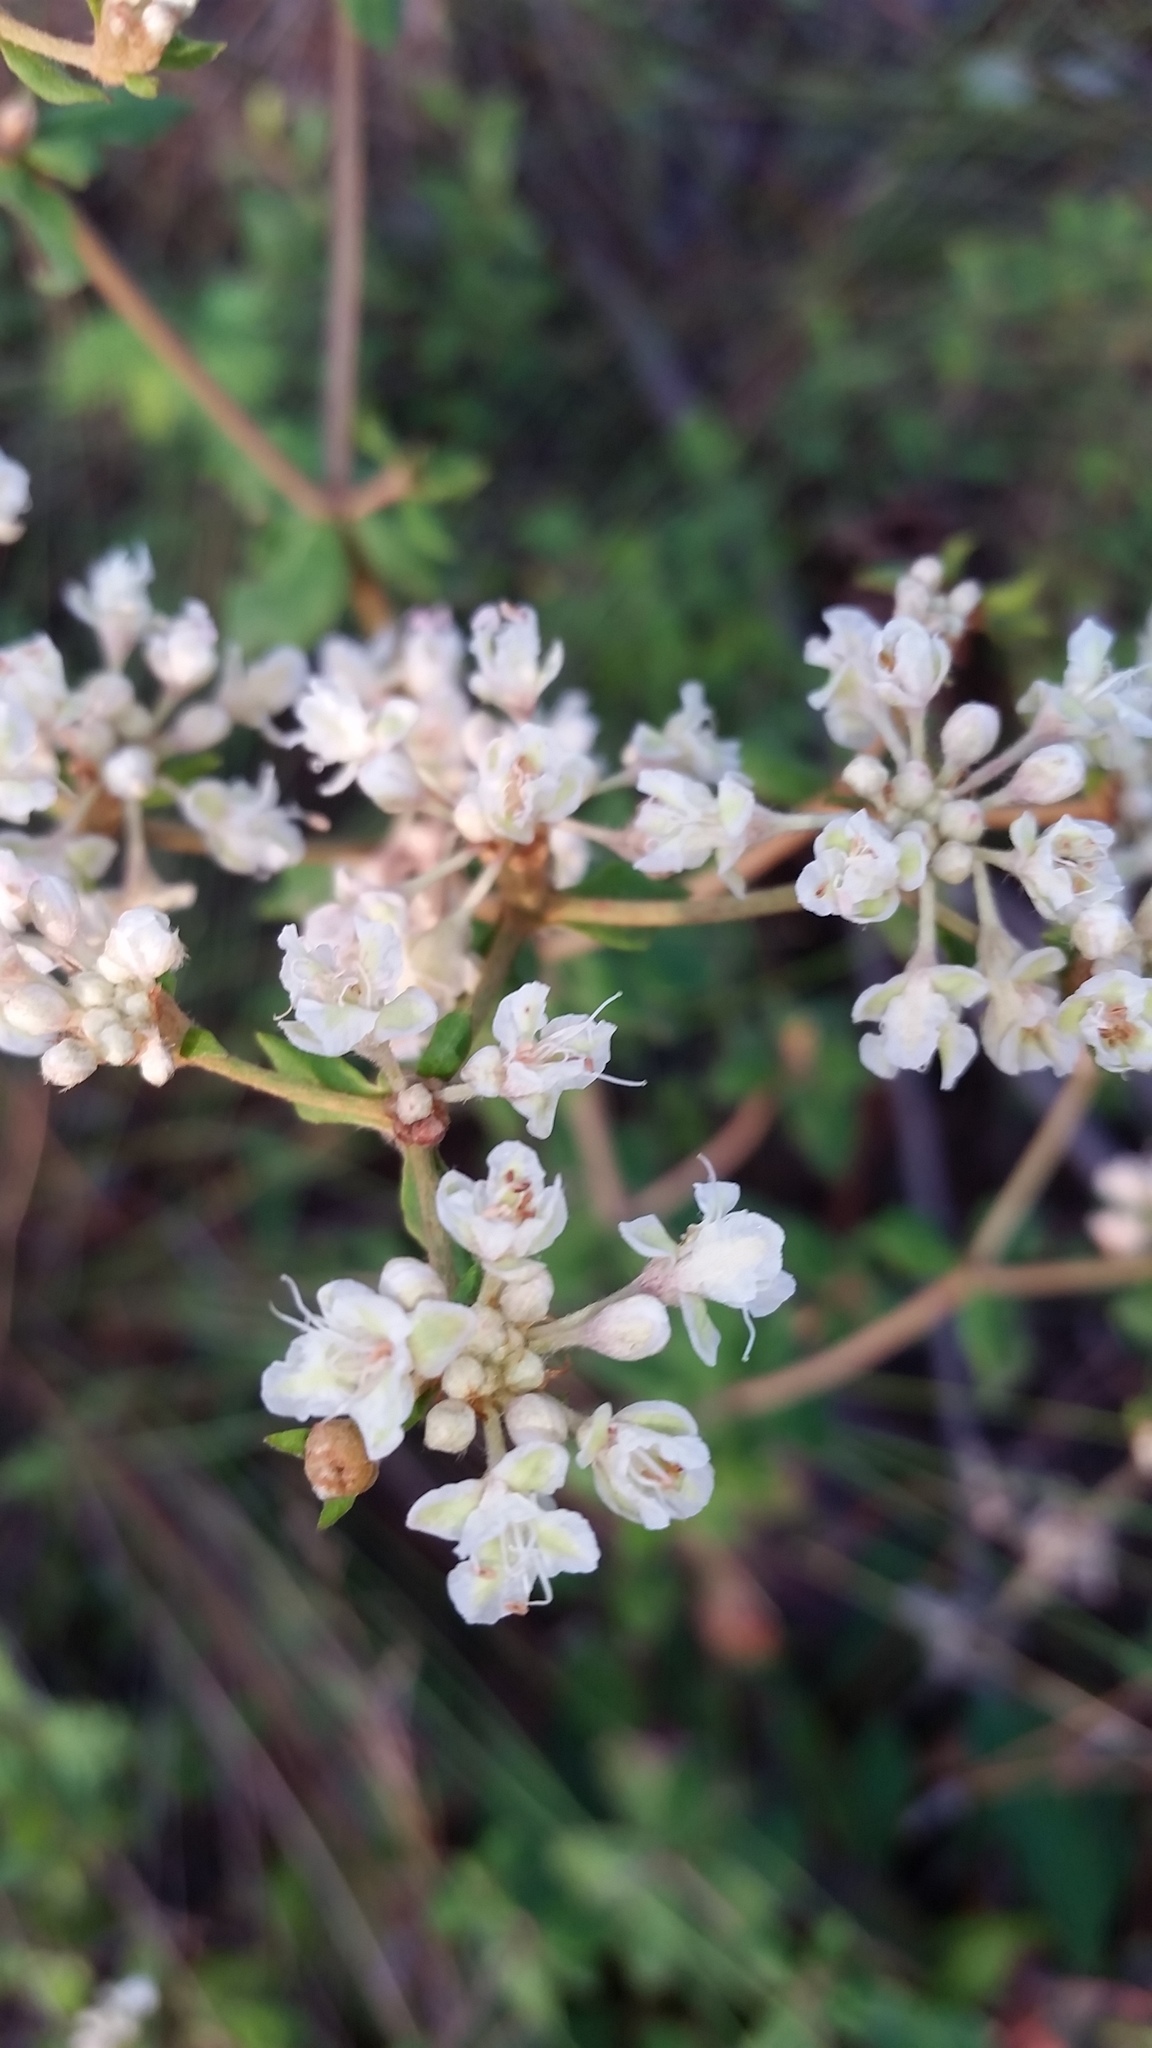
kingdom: Plantae
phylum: Tracheophyta
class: Magnoliopsida
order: Caryophyllales
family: Polygonaceae
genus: Eriogonum
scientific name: Eriogonum tomentosum
